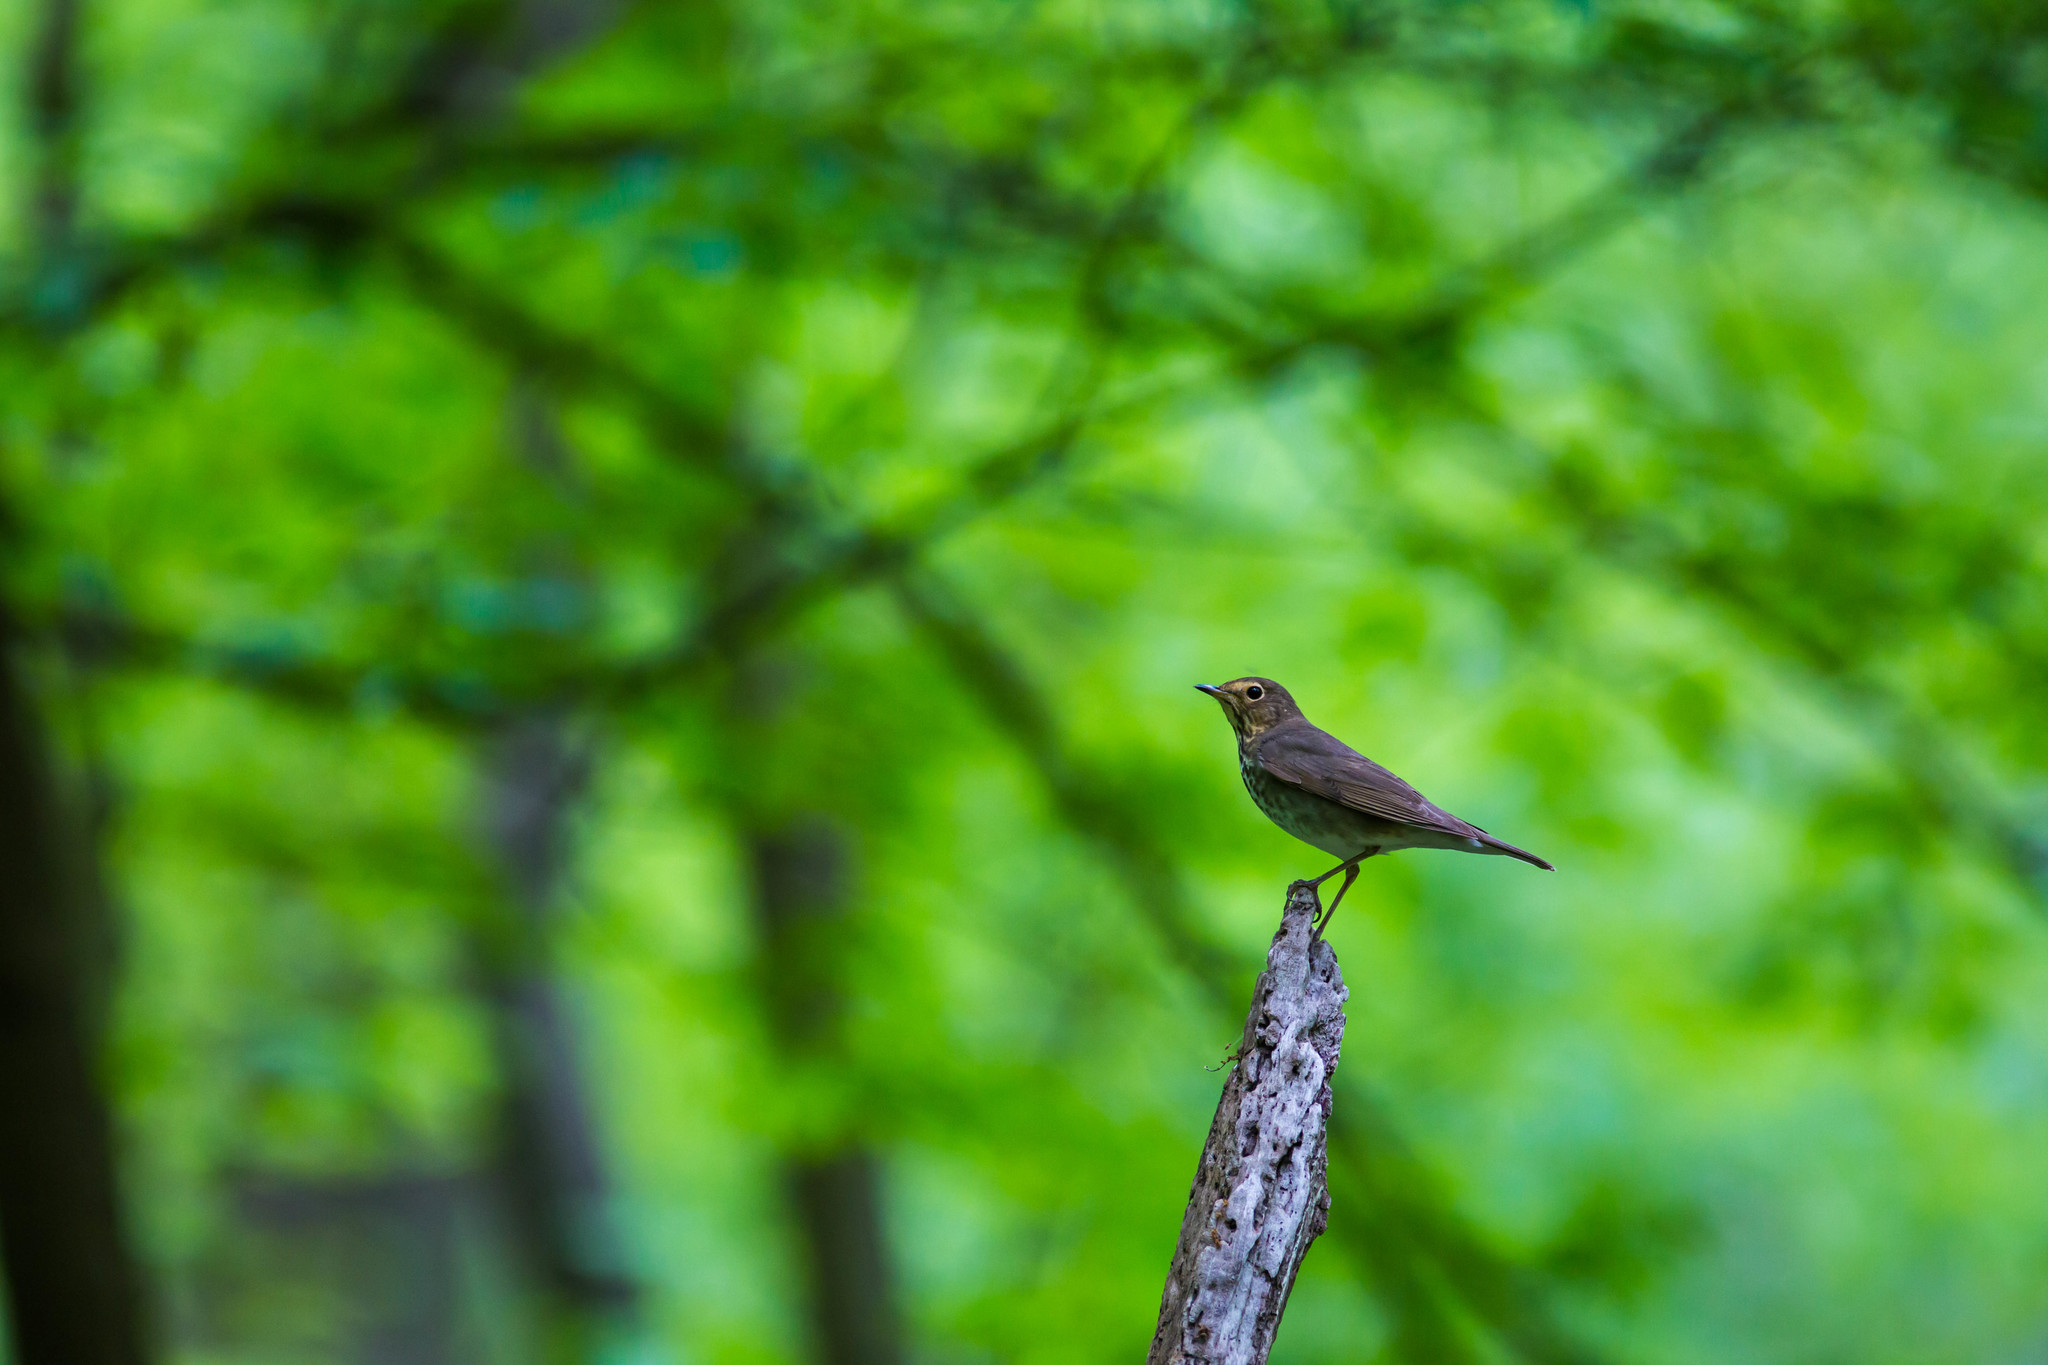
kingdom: Animalia
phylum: Chordata
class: Aves
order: Passeriformes
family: Turdidae
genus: Catharus
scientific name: Catharus ustulatus
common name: Swainson's thrush
